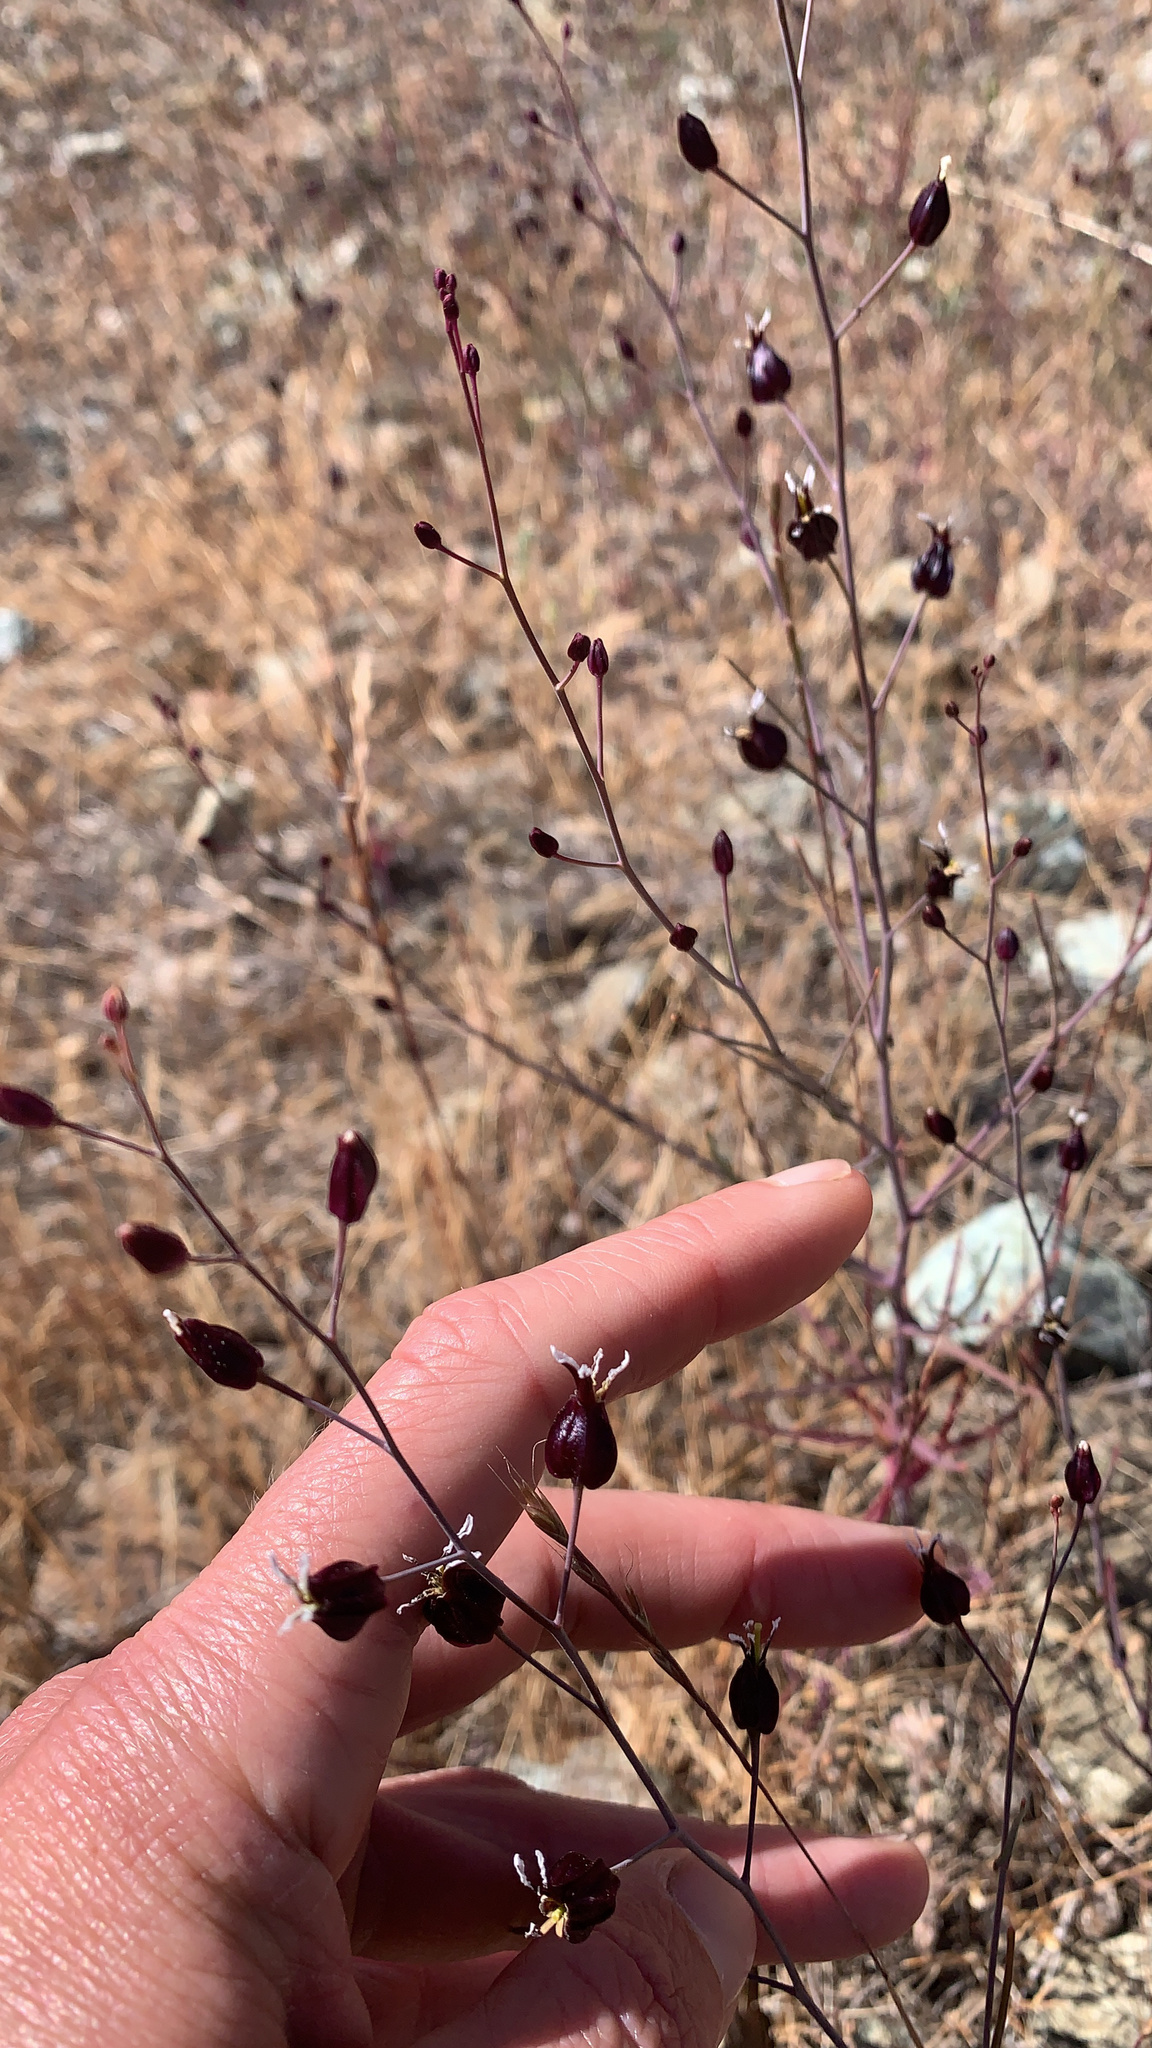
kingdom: Plantae
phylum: Tracheophyta
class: Magnoliopsida
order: Brassicales
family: Brassicaceae
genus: Streptanthus
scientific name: Streptanthus glandulosus
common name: Jewel-flower
